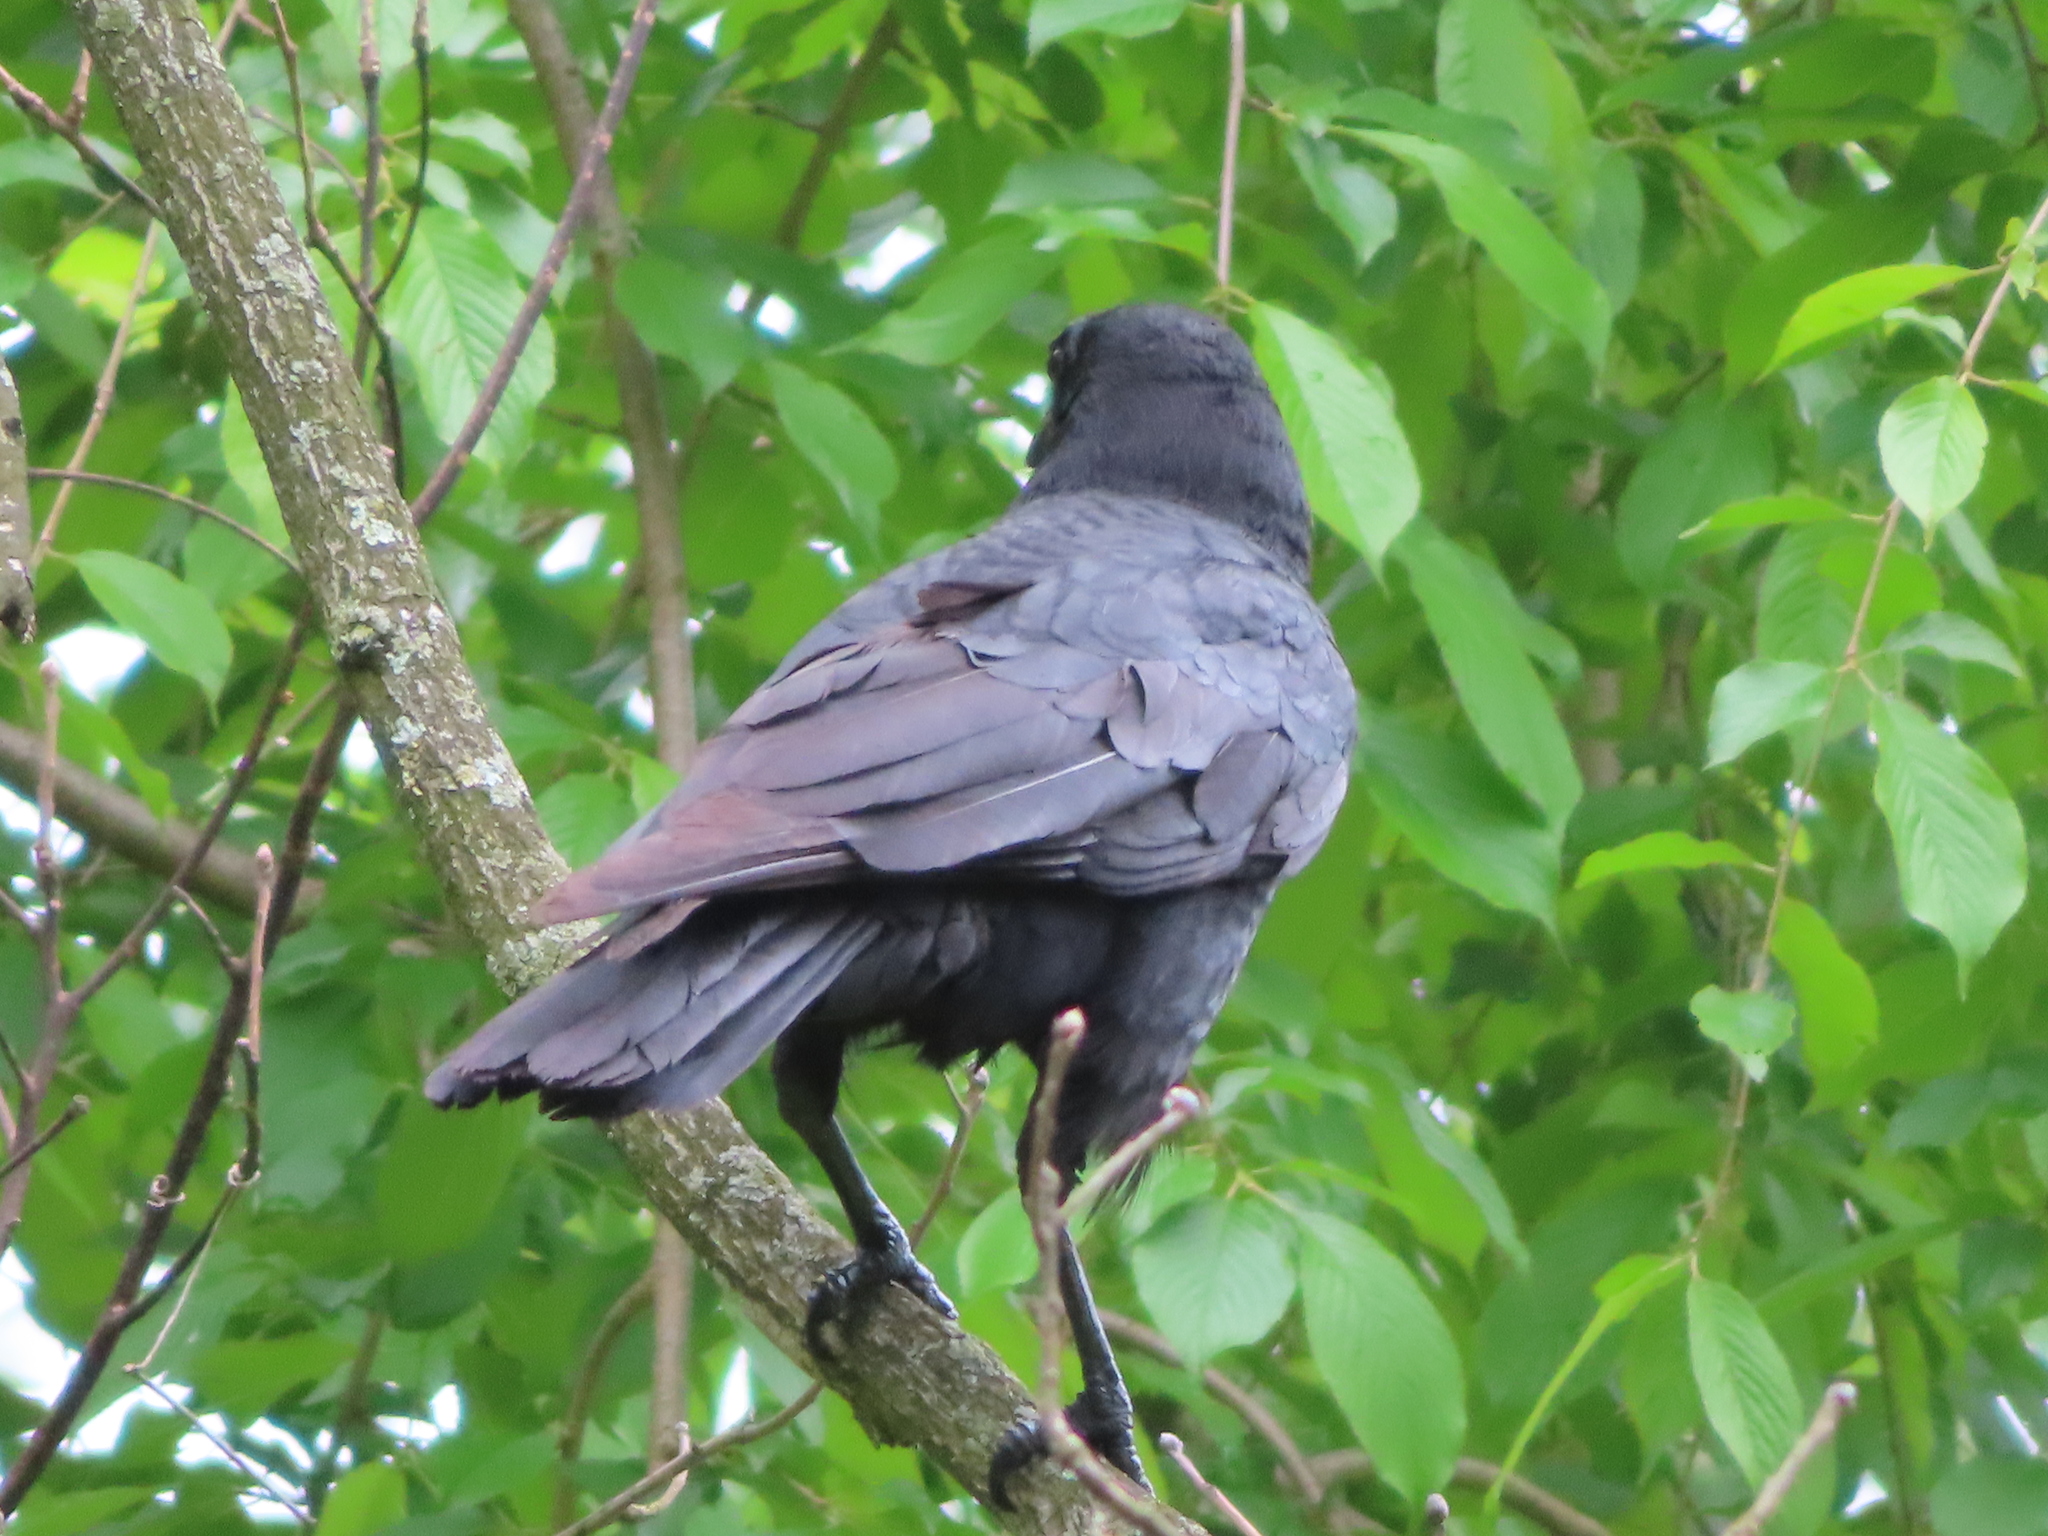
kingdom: Animalia
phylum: Chordata
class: Aves
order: Passeriformes
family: Corvidae
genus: Corvus
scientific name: Corvus brachyrhynchos
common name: American crow
